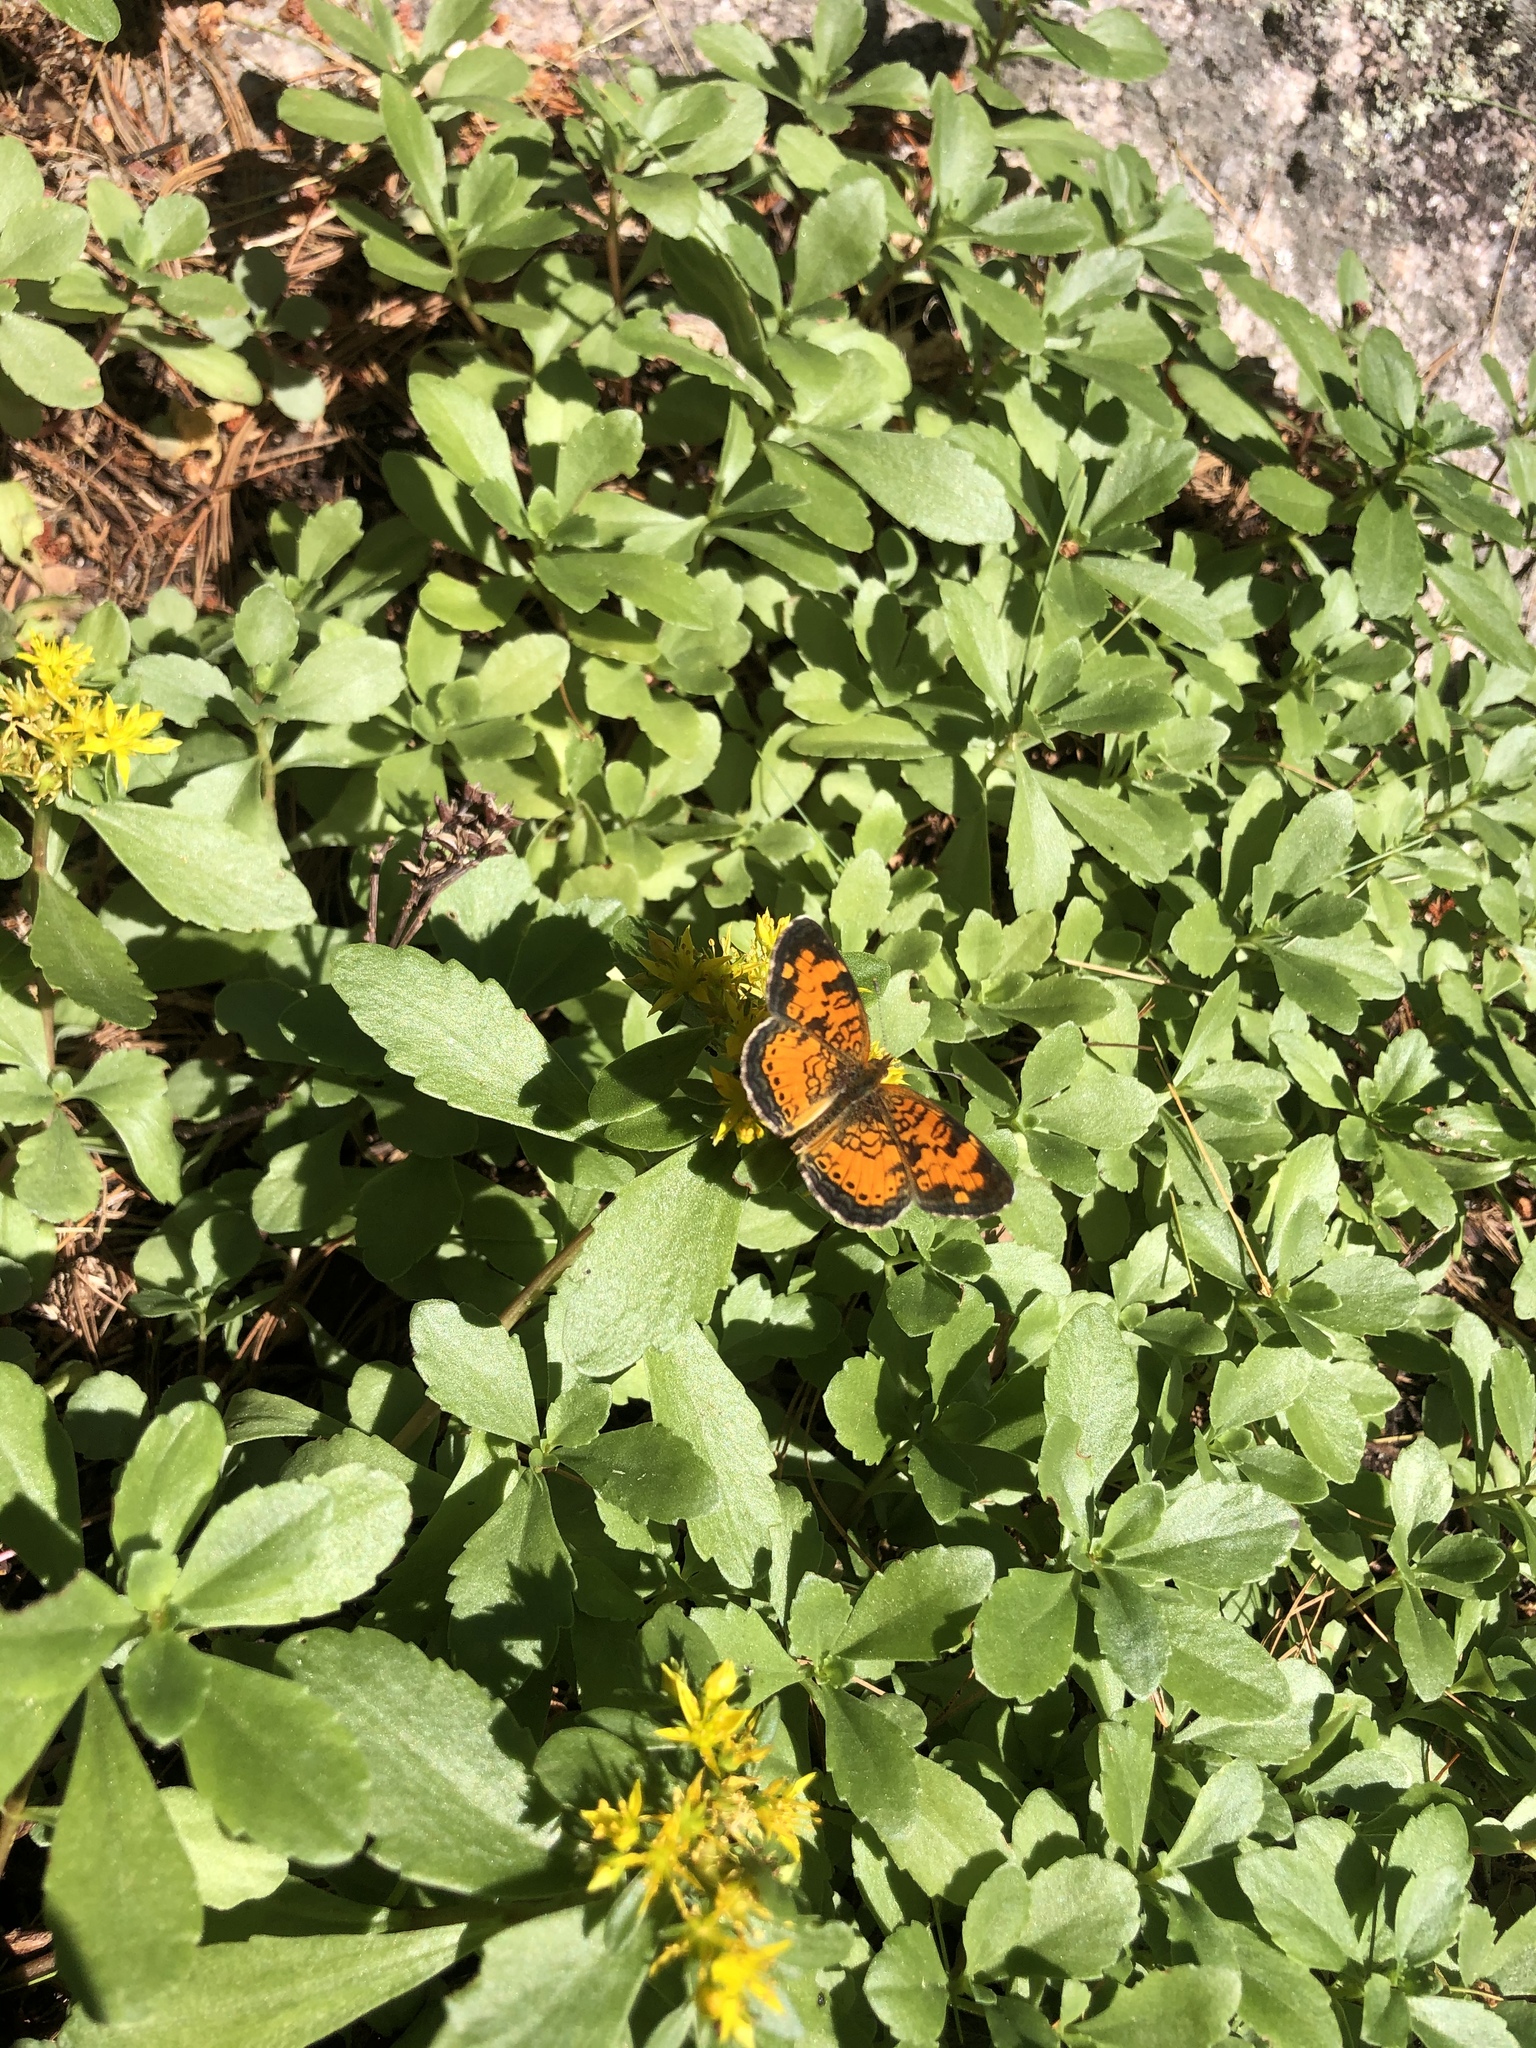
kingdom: Animalia
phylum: Arthropoda
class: Insecta
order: Lepidoptera
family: Nymphalidae
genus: Phyciodes
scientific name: Phyciodes tharos
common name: Pearl crescent
